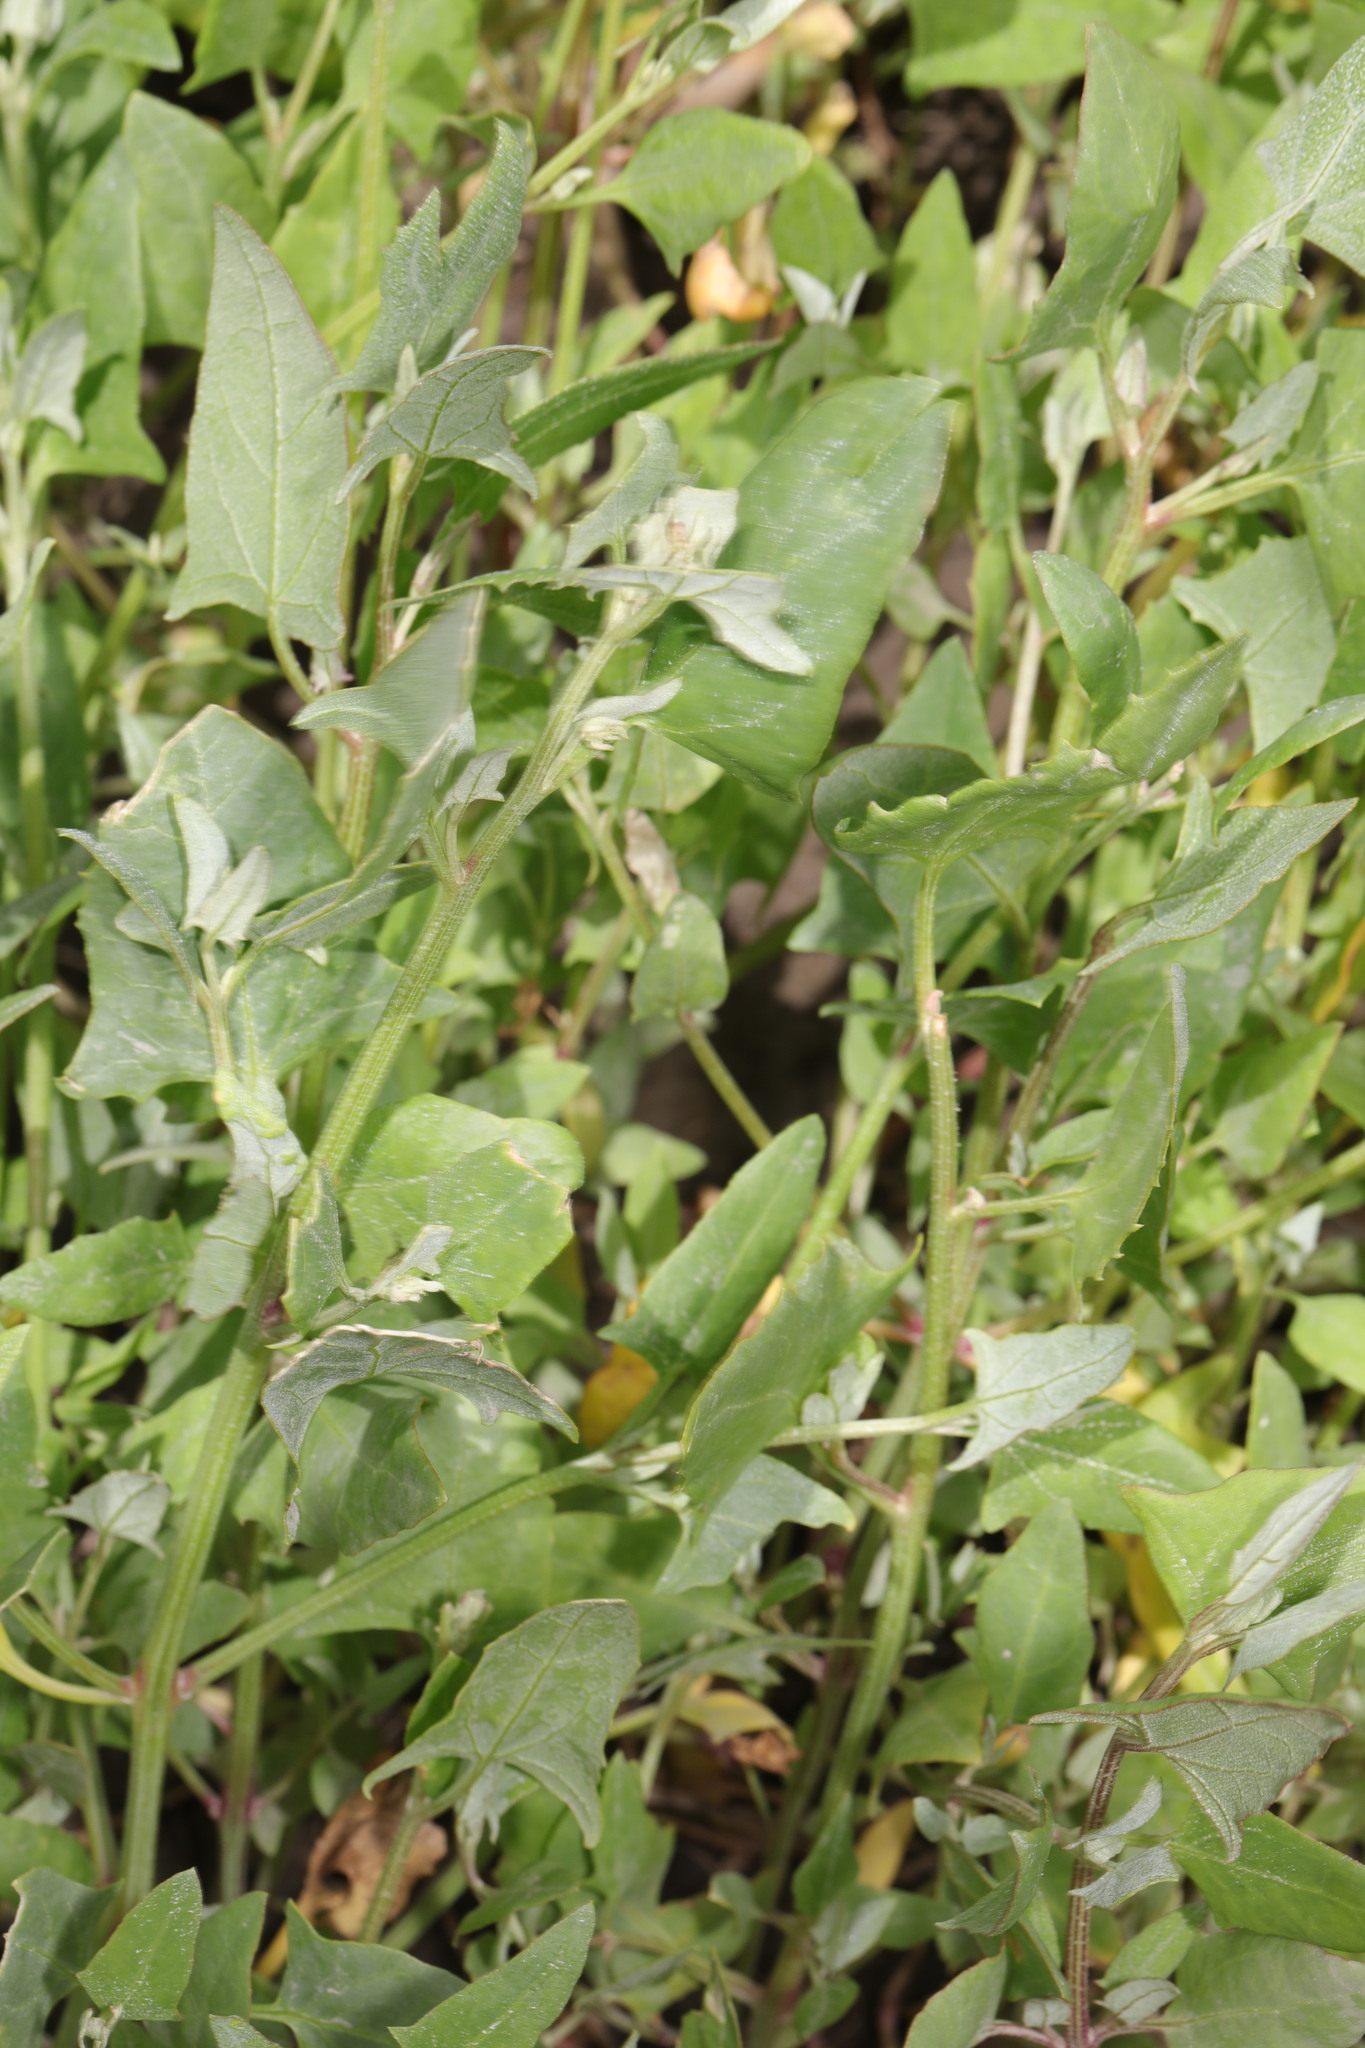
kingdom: Plantae
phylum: Tracheophyta
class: Magnoliopsida
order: Caryophyllales
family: Amaranthaceae
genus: Atriplex
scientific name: Atriplex prostrata
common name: Spear-leaved orache
